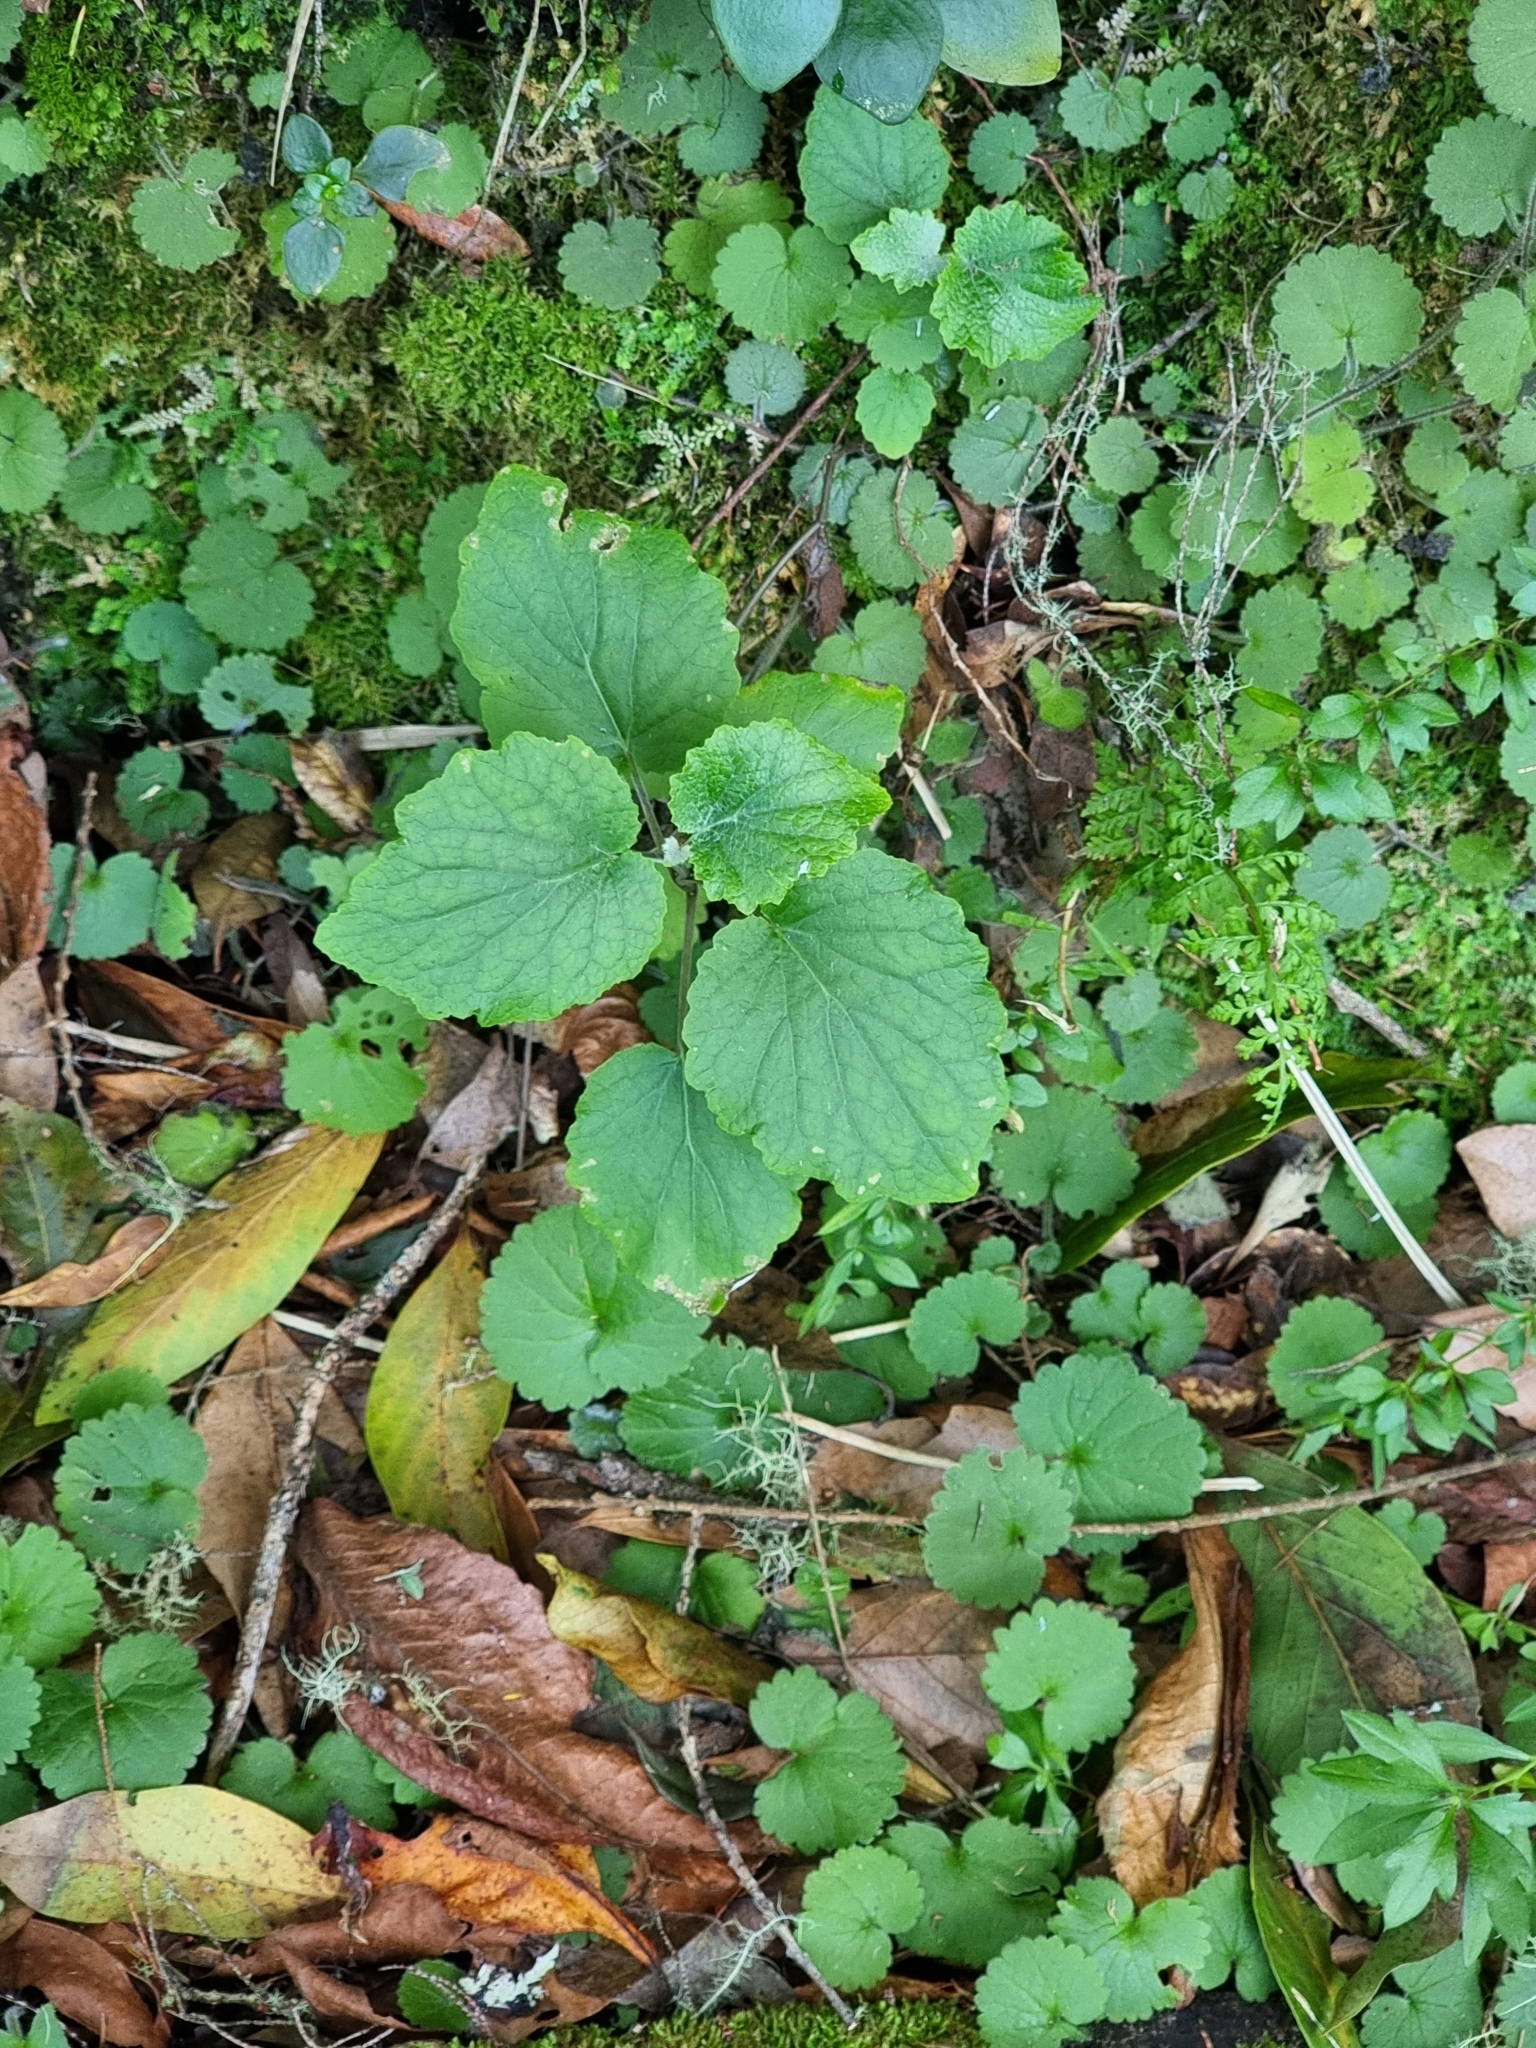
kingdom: Plantae
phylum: Tracheophyta
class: Magnoliopsida
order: Asterales
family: Asteraceae
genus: Pericallis
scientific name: Pericallis aurita
